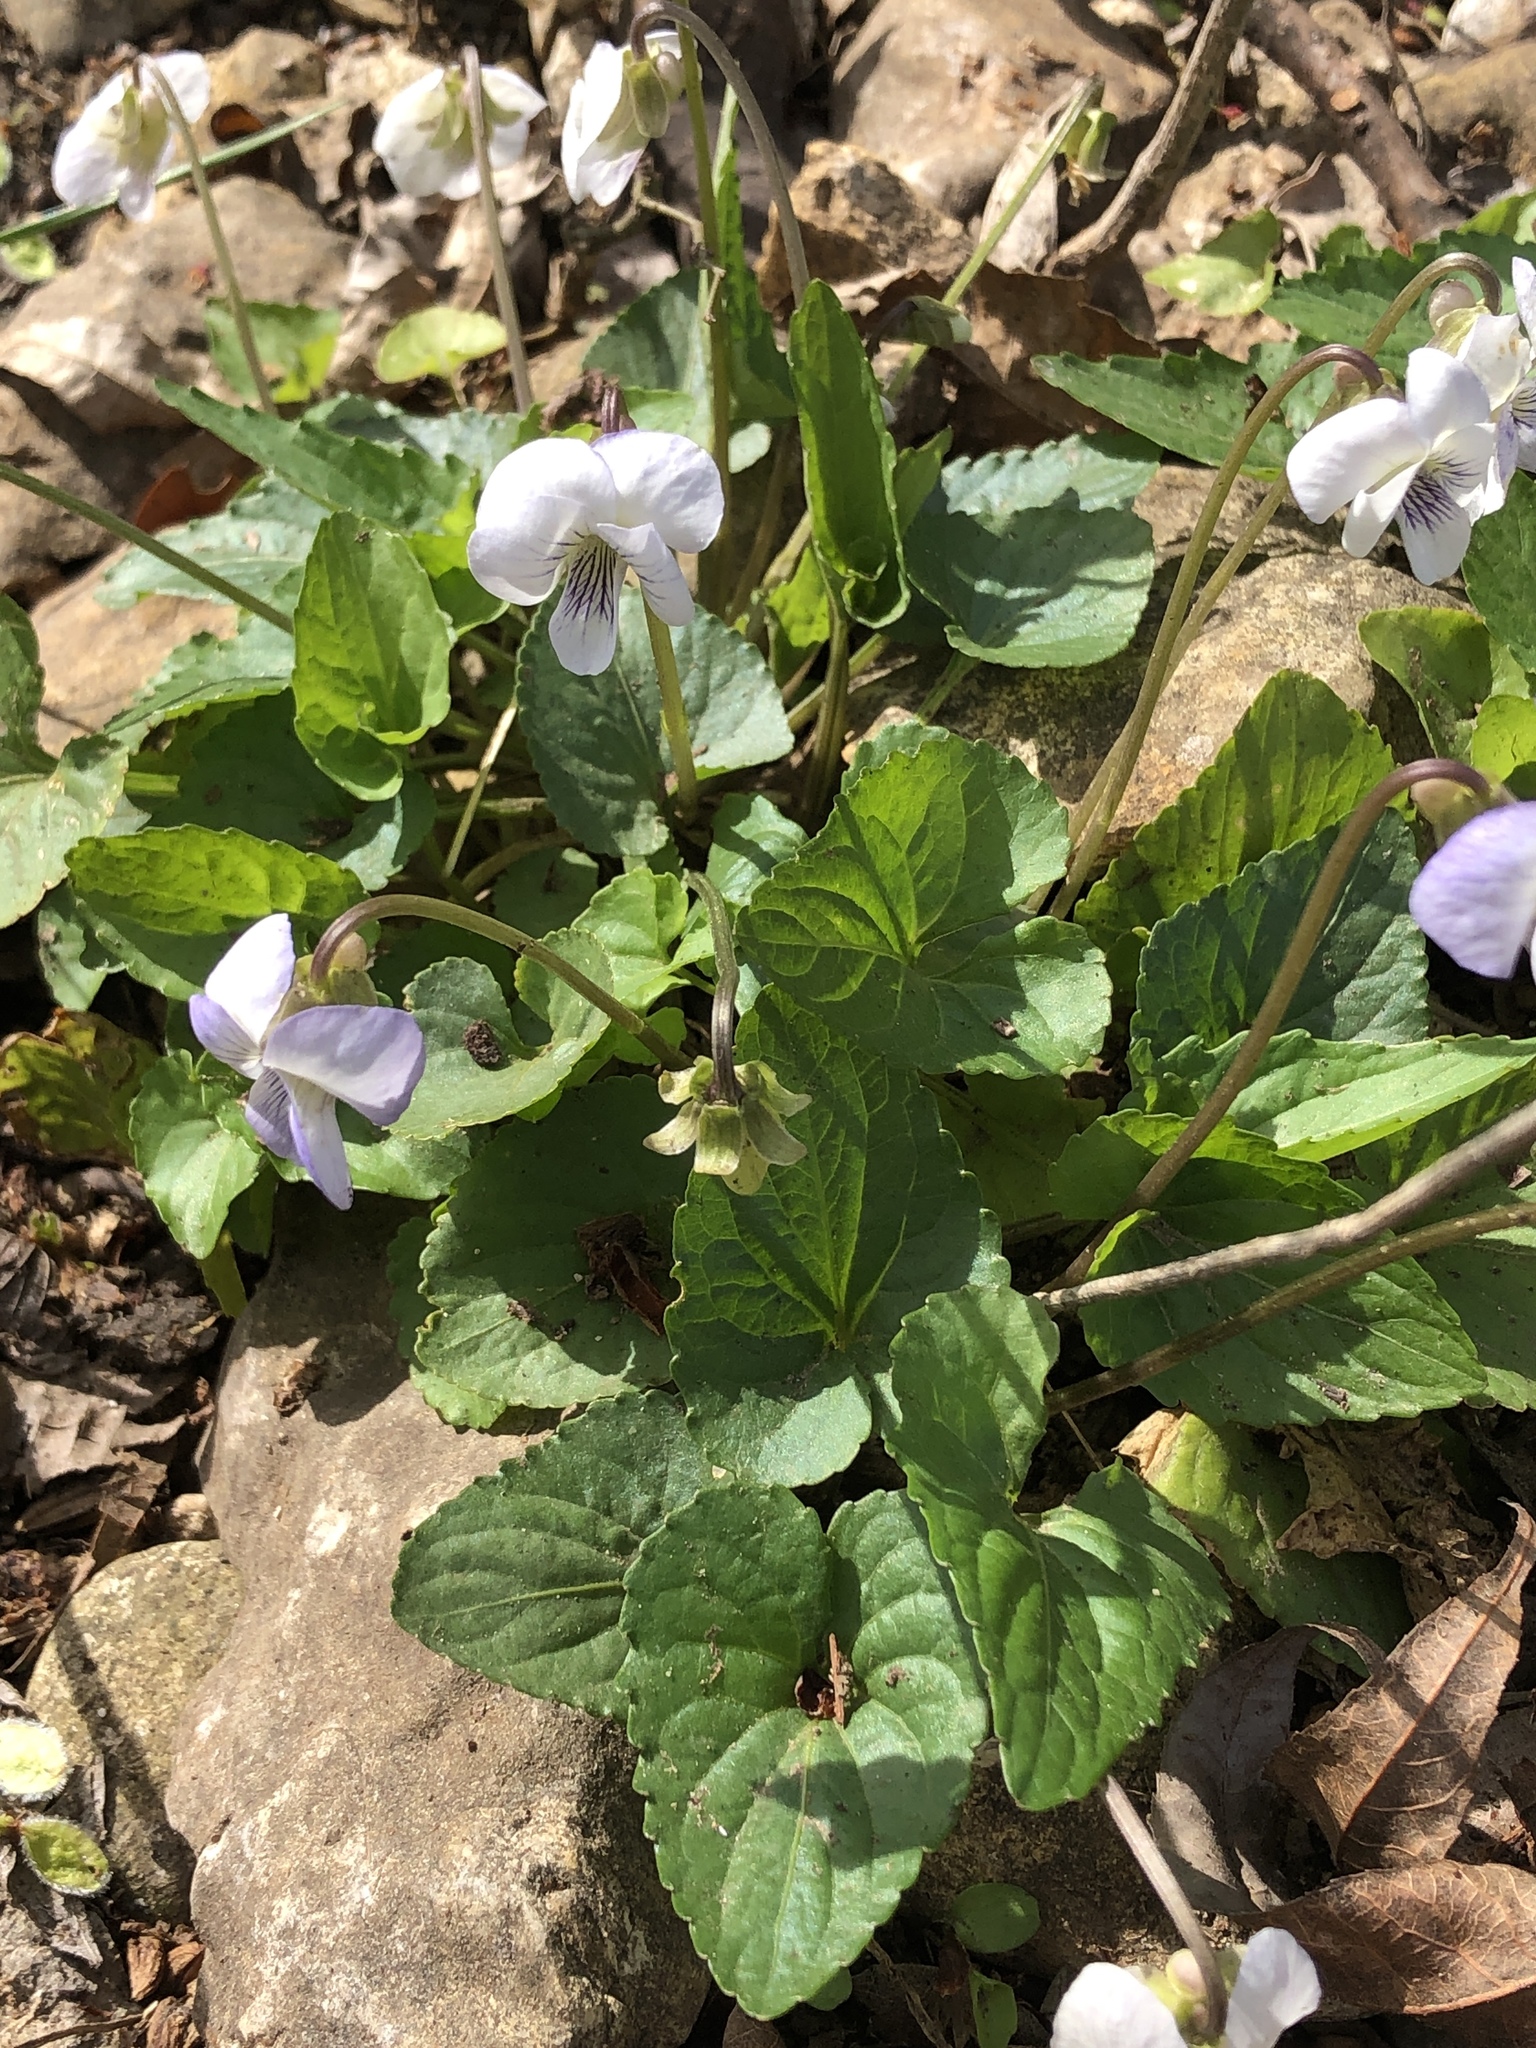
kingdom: Plantae
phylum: Tracheophyta
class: Magnoliopsida
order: Malpighiales
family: Violaceae
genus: Viola
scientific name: Viola missouriensis
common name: Missouri violet
